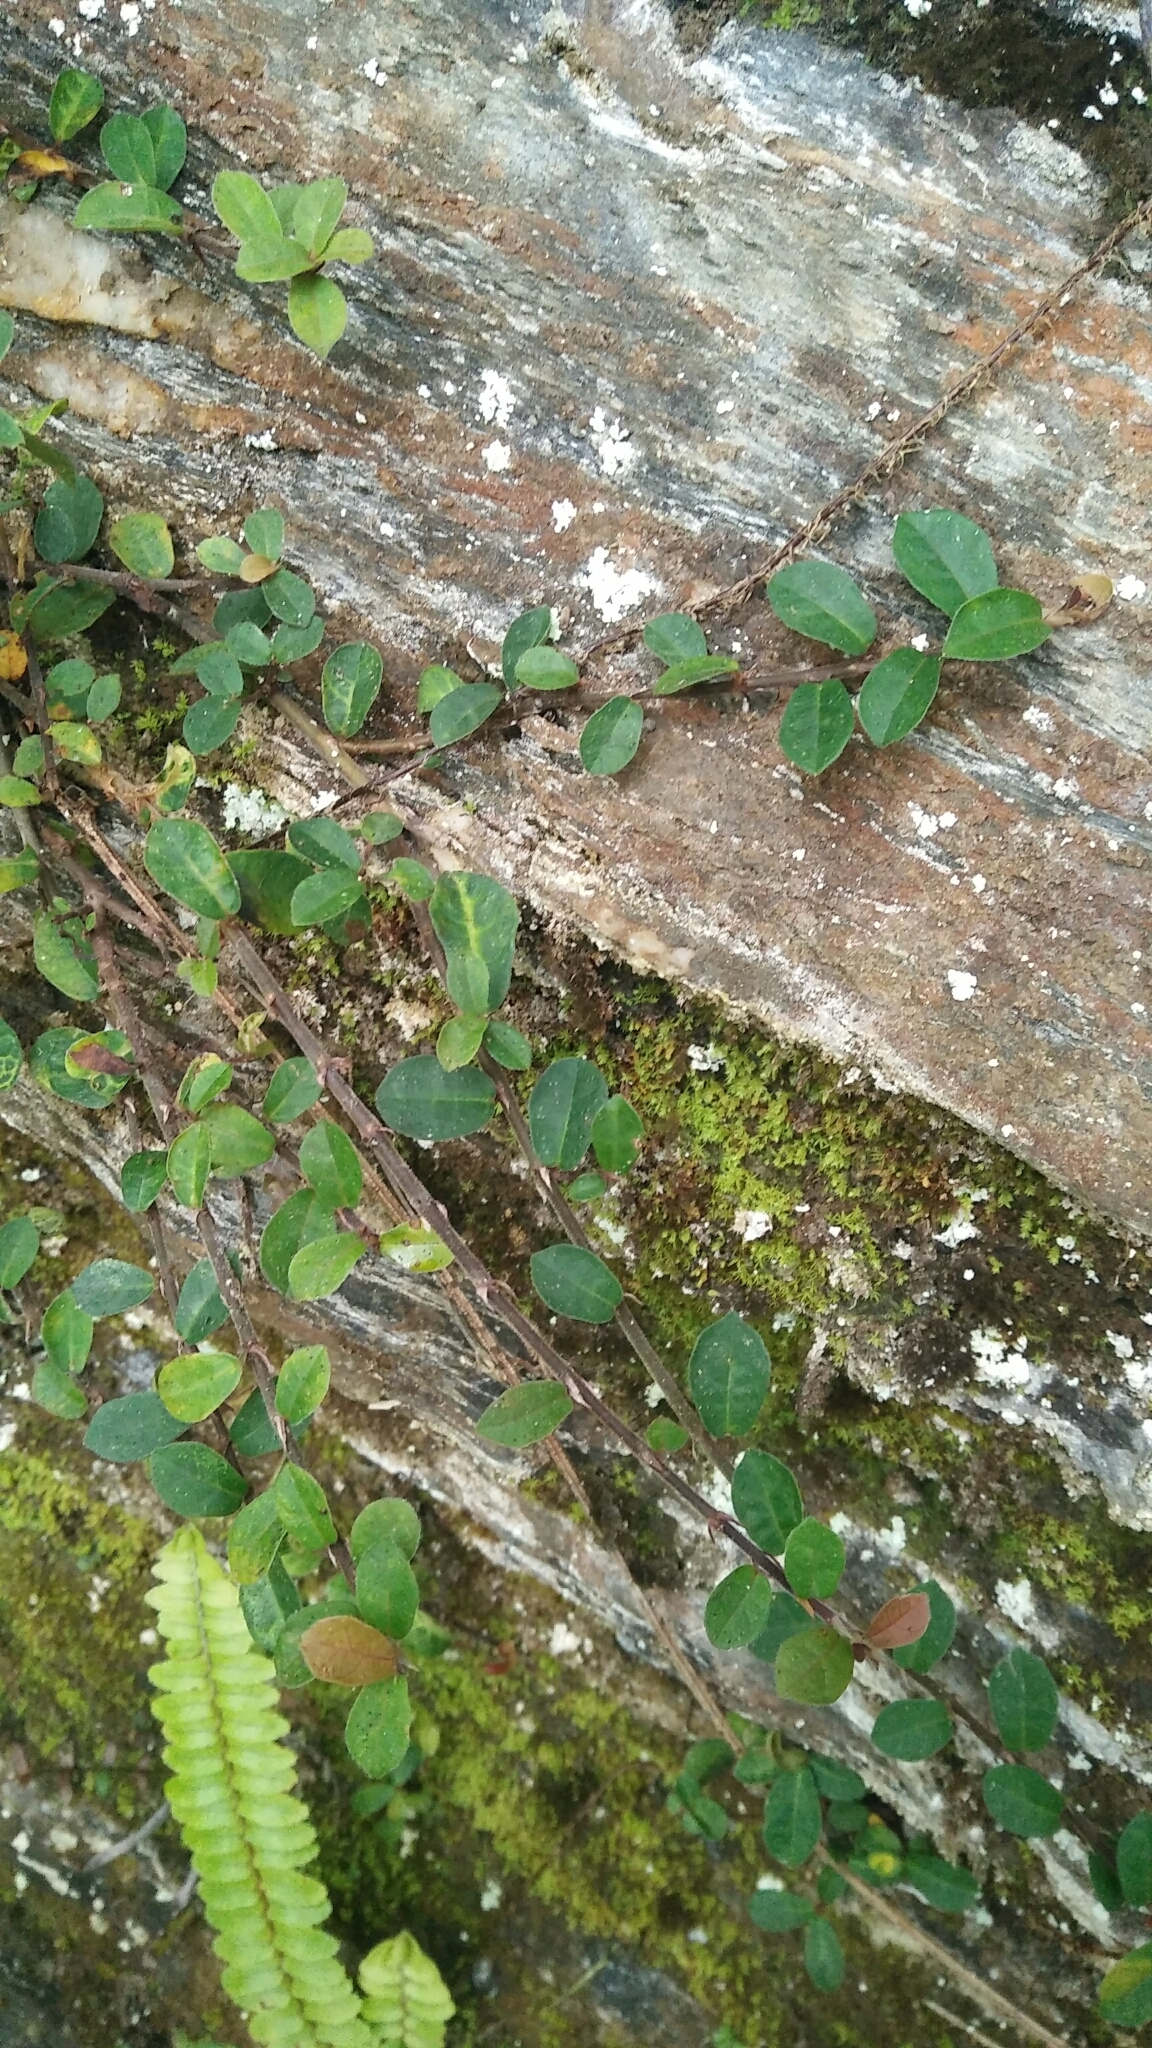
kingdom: Plantae
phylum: Tracheophyta
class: Magnoliopsida
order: Rosales
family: Moraceae
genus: Ficus
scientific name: Ficus vaccinioides
